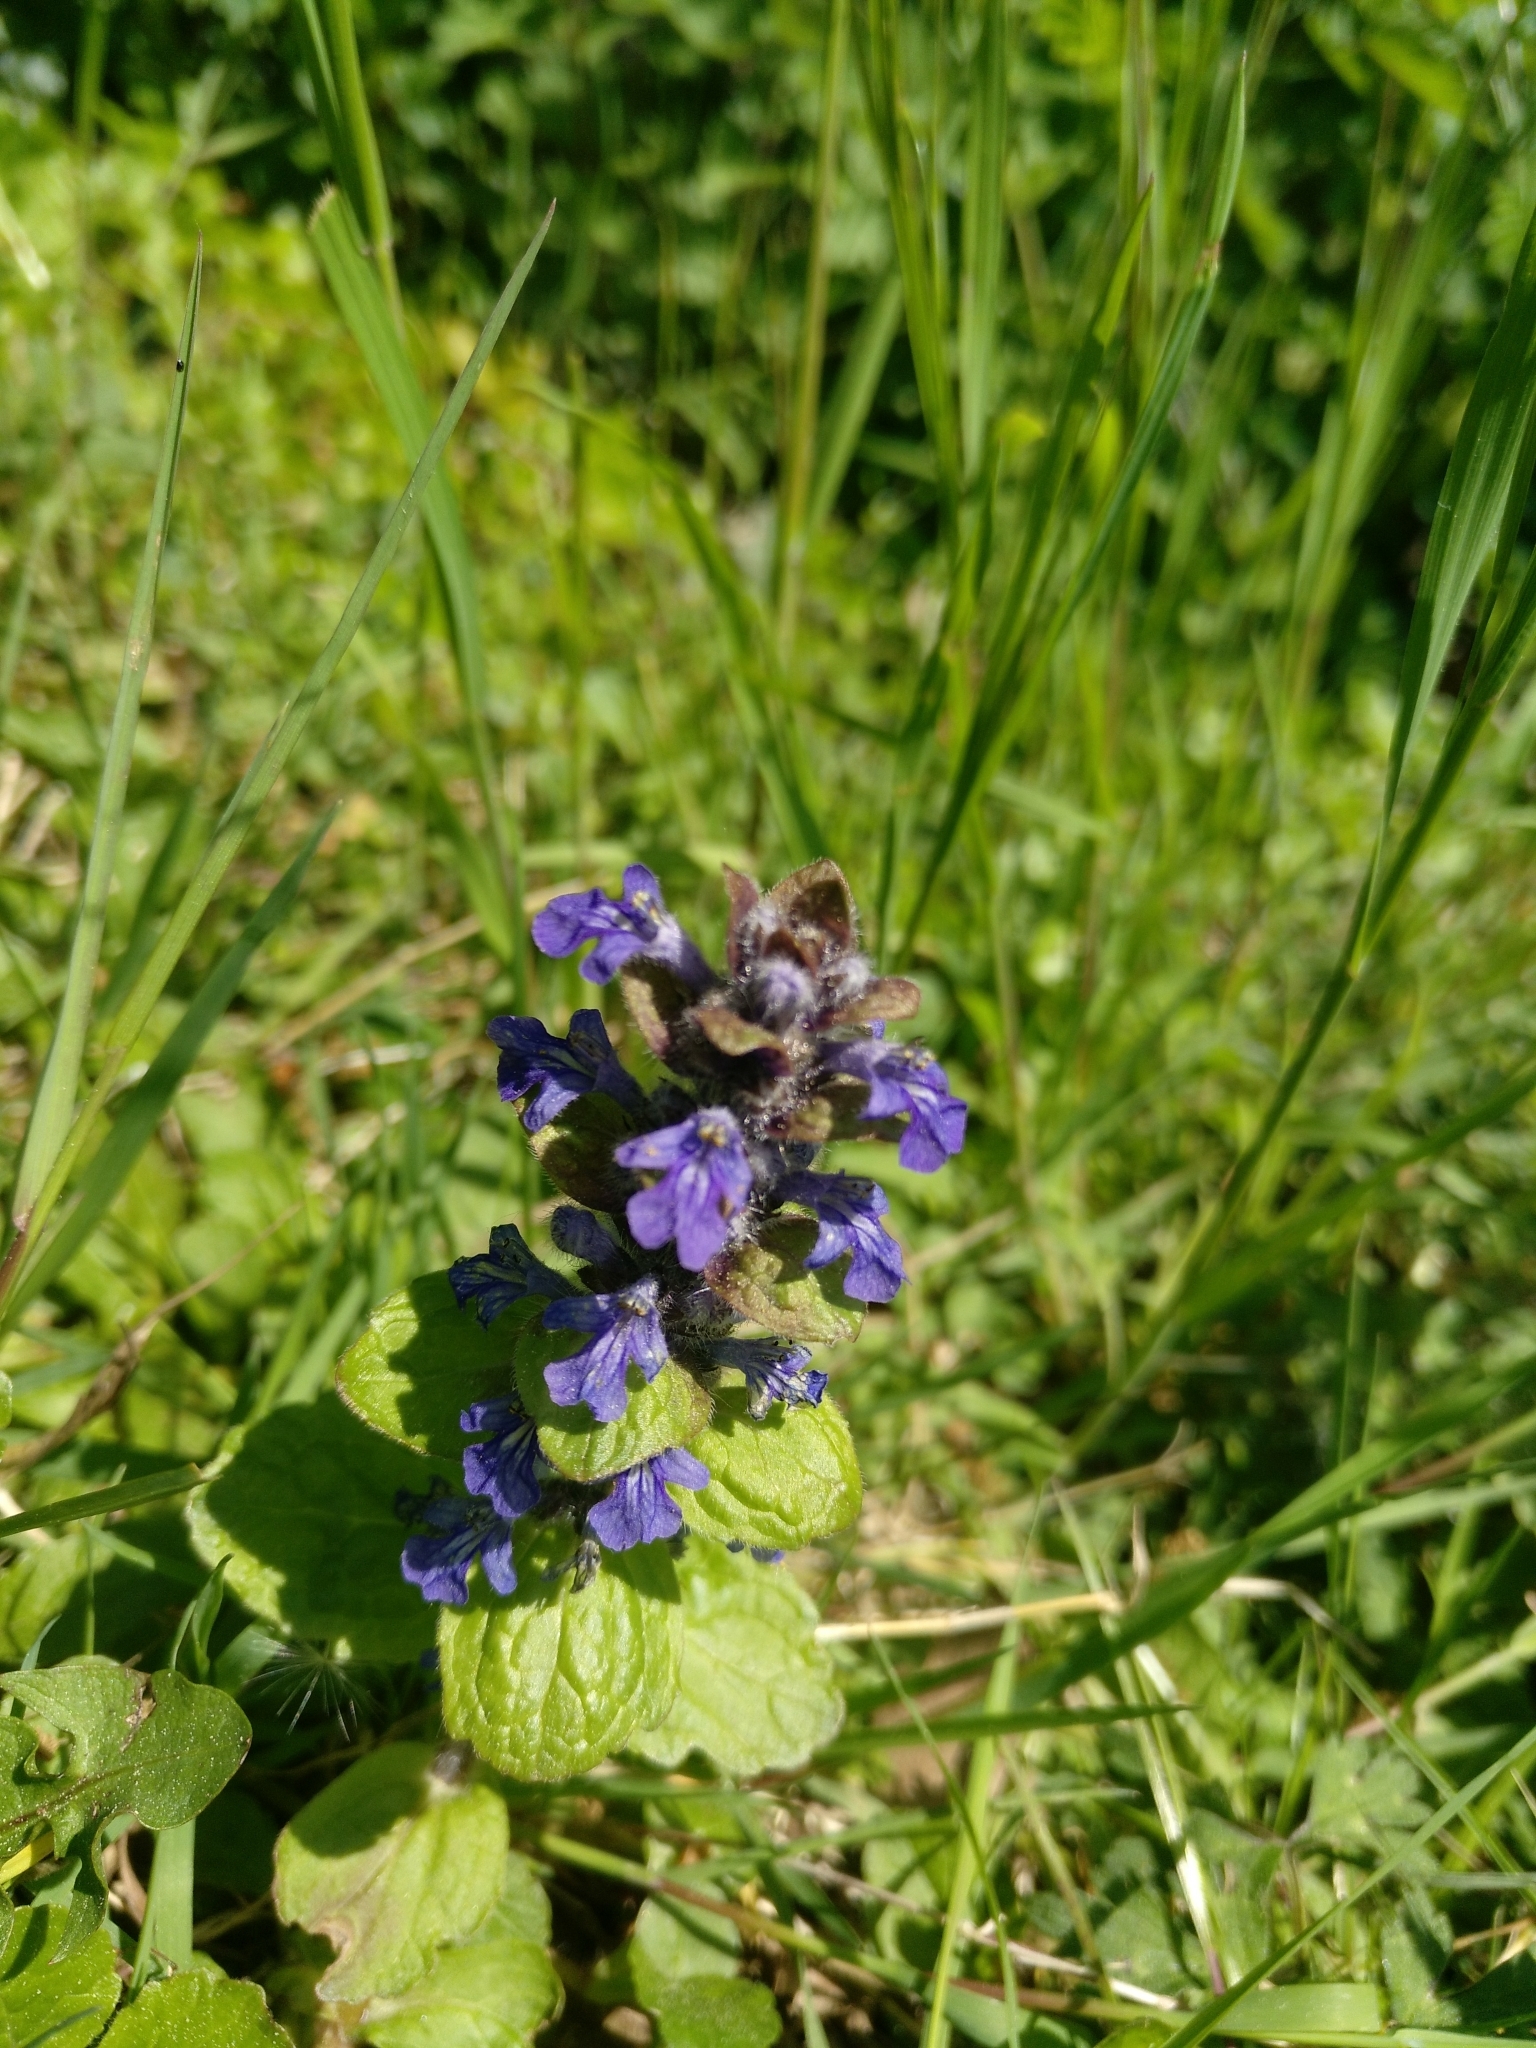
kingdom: Plantae
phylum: Tracheophyta
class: Magnoliopsida
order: Lamiales
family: Lamiaceae
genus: Ajuga
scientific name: Ajuga reptans
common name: Bugle
